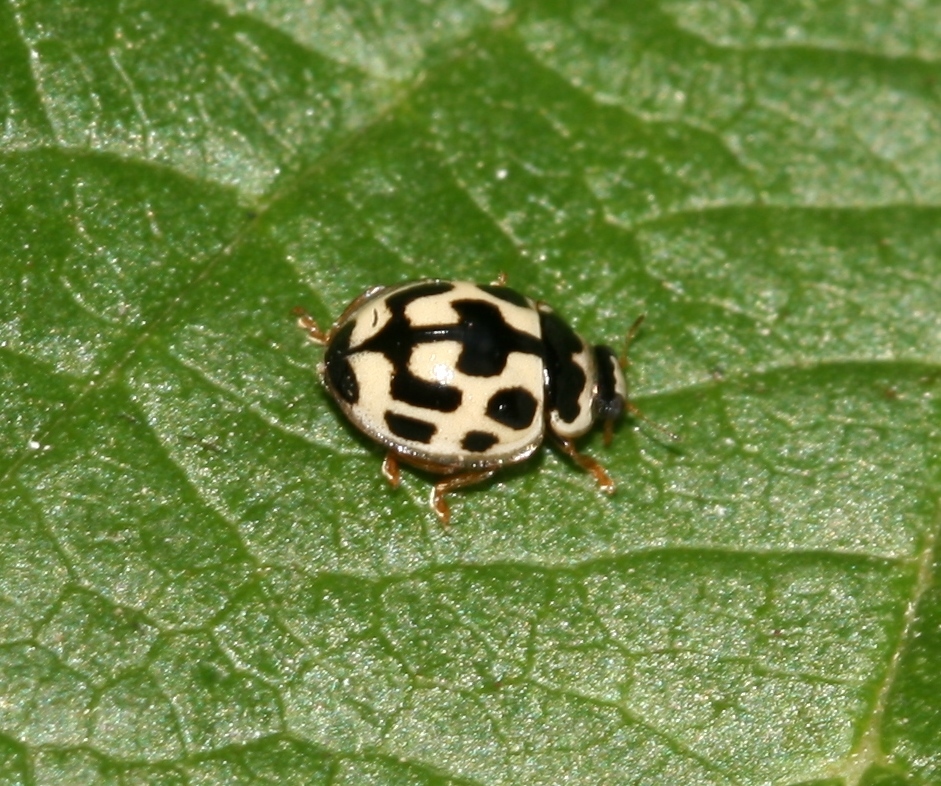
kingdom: Animalia
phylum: Arthropoda
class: Insecta
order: Coleoptera
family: Coccinellidae
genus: Propylaea
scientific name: Propylaea quatuordecimpunctata
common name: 14-spotted ladybird beetle
